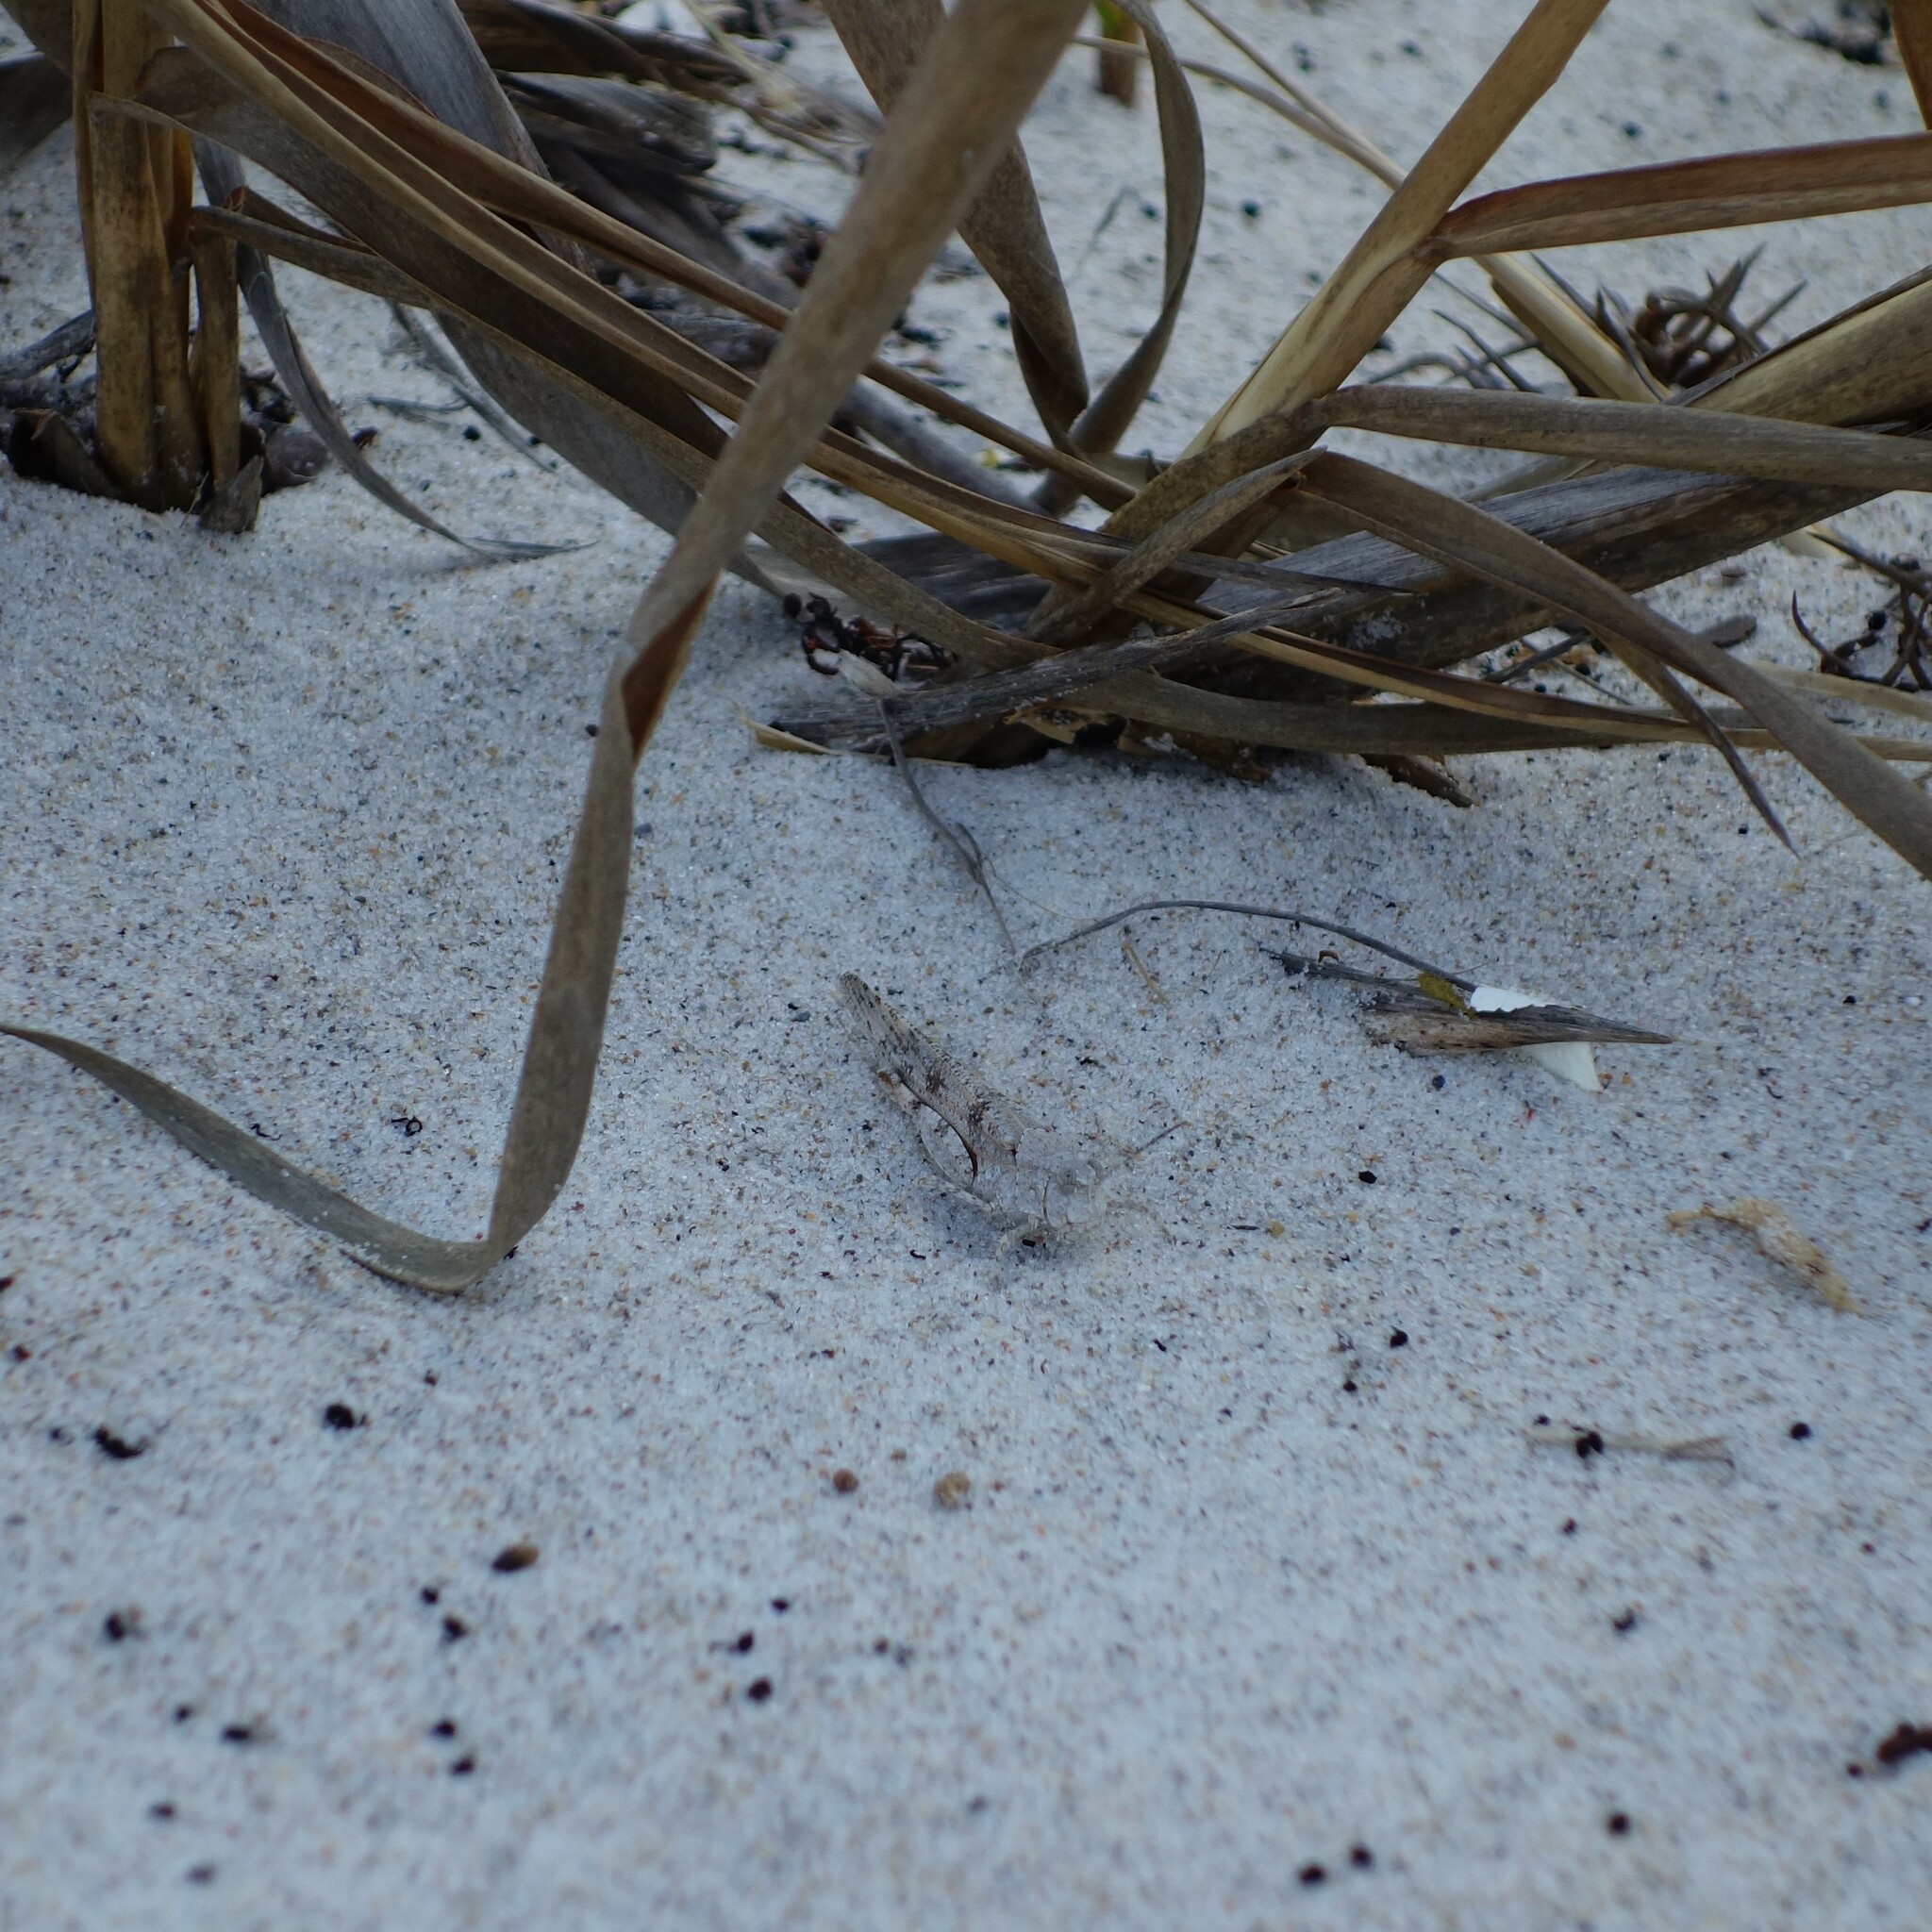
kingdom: Animalia
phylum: Arthropoda
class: Insecta
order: Orthoptera
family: Acrididae
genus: Trimerotropis
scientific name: Trimerotropis maritima
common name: Seaside locust
